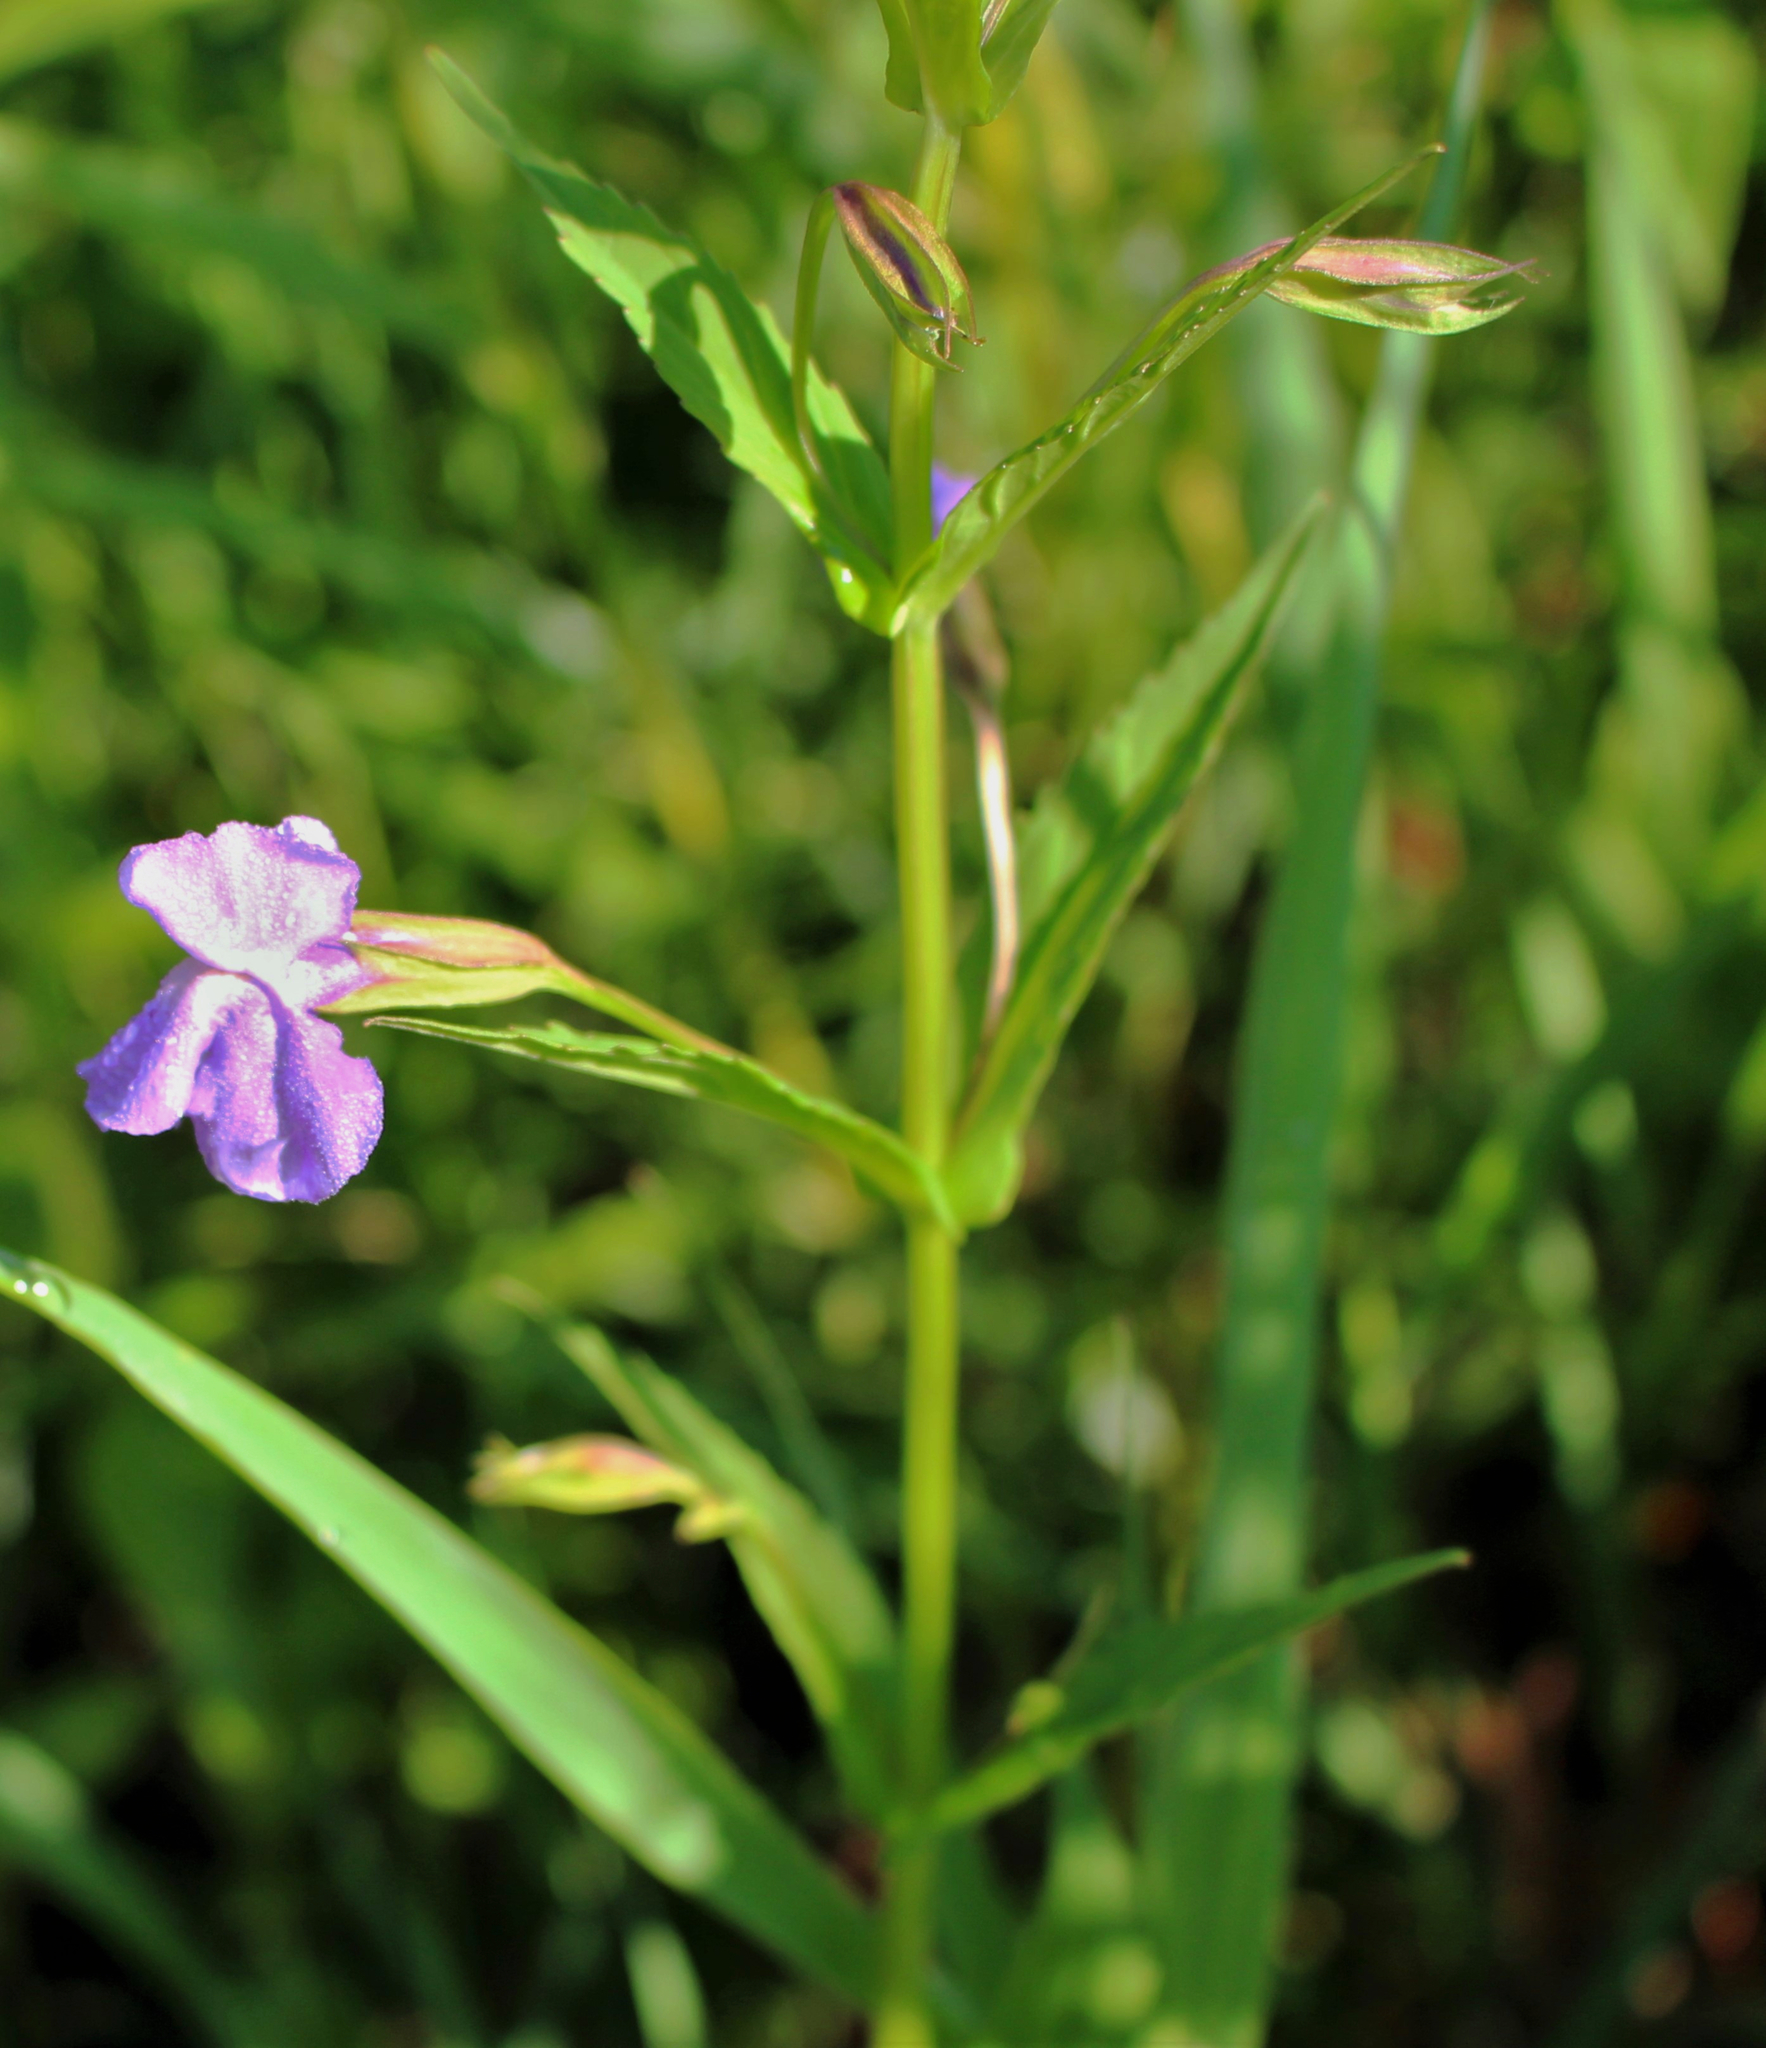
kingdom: Plantae
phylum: Tracheophyta
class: Magnoliopsida
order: Lamiales
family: Phrymaceae
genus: Mimulus
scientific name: Mimulus ringens
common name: Allegheny monkeyflower
